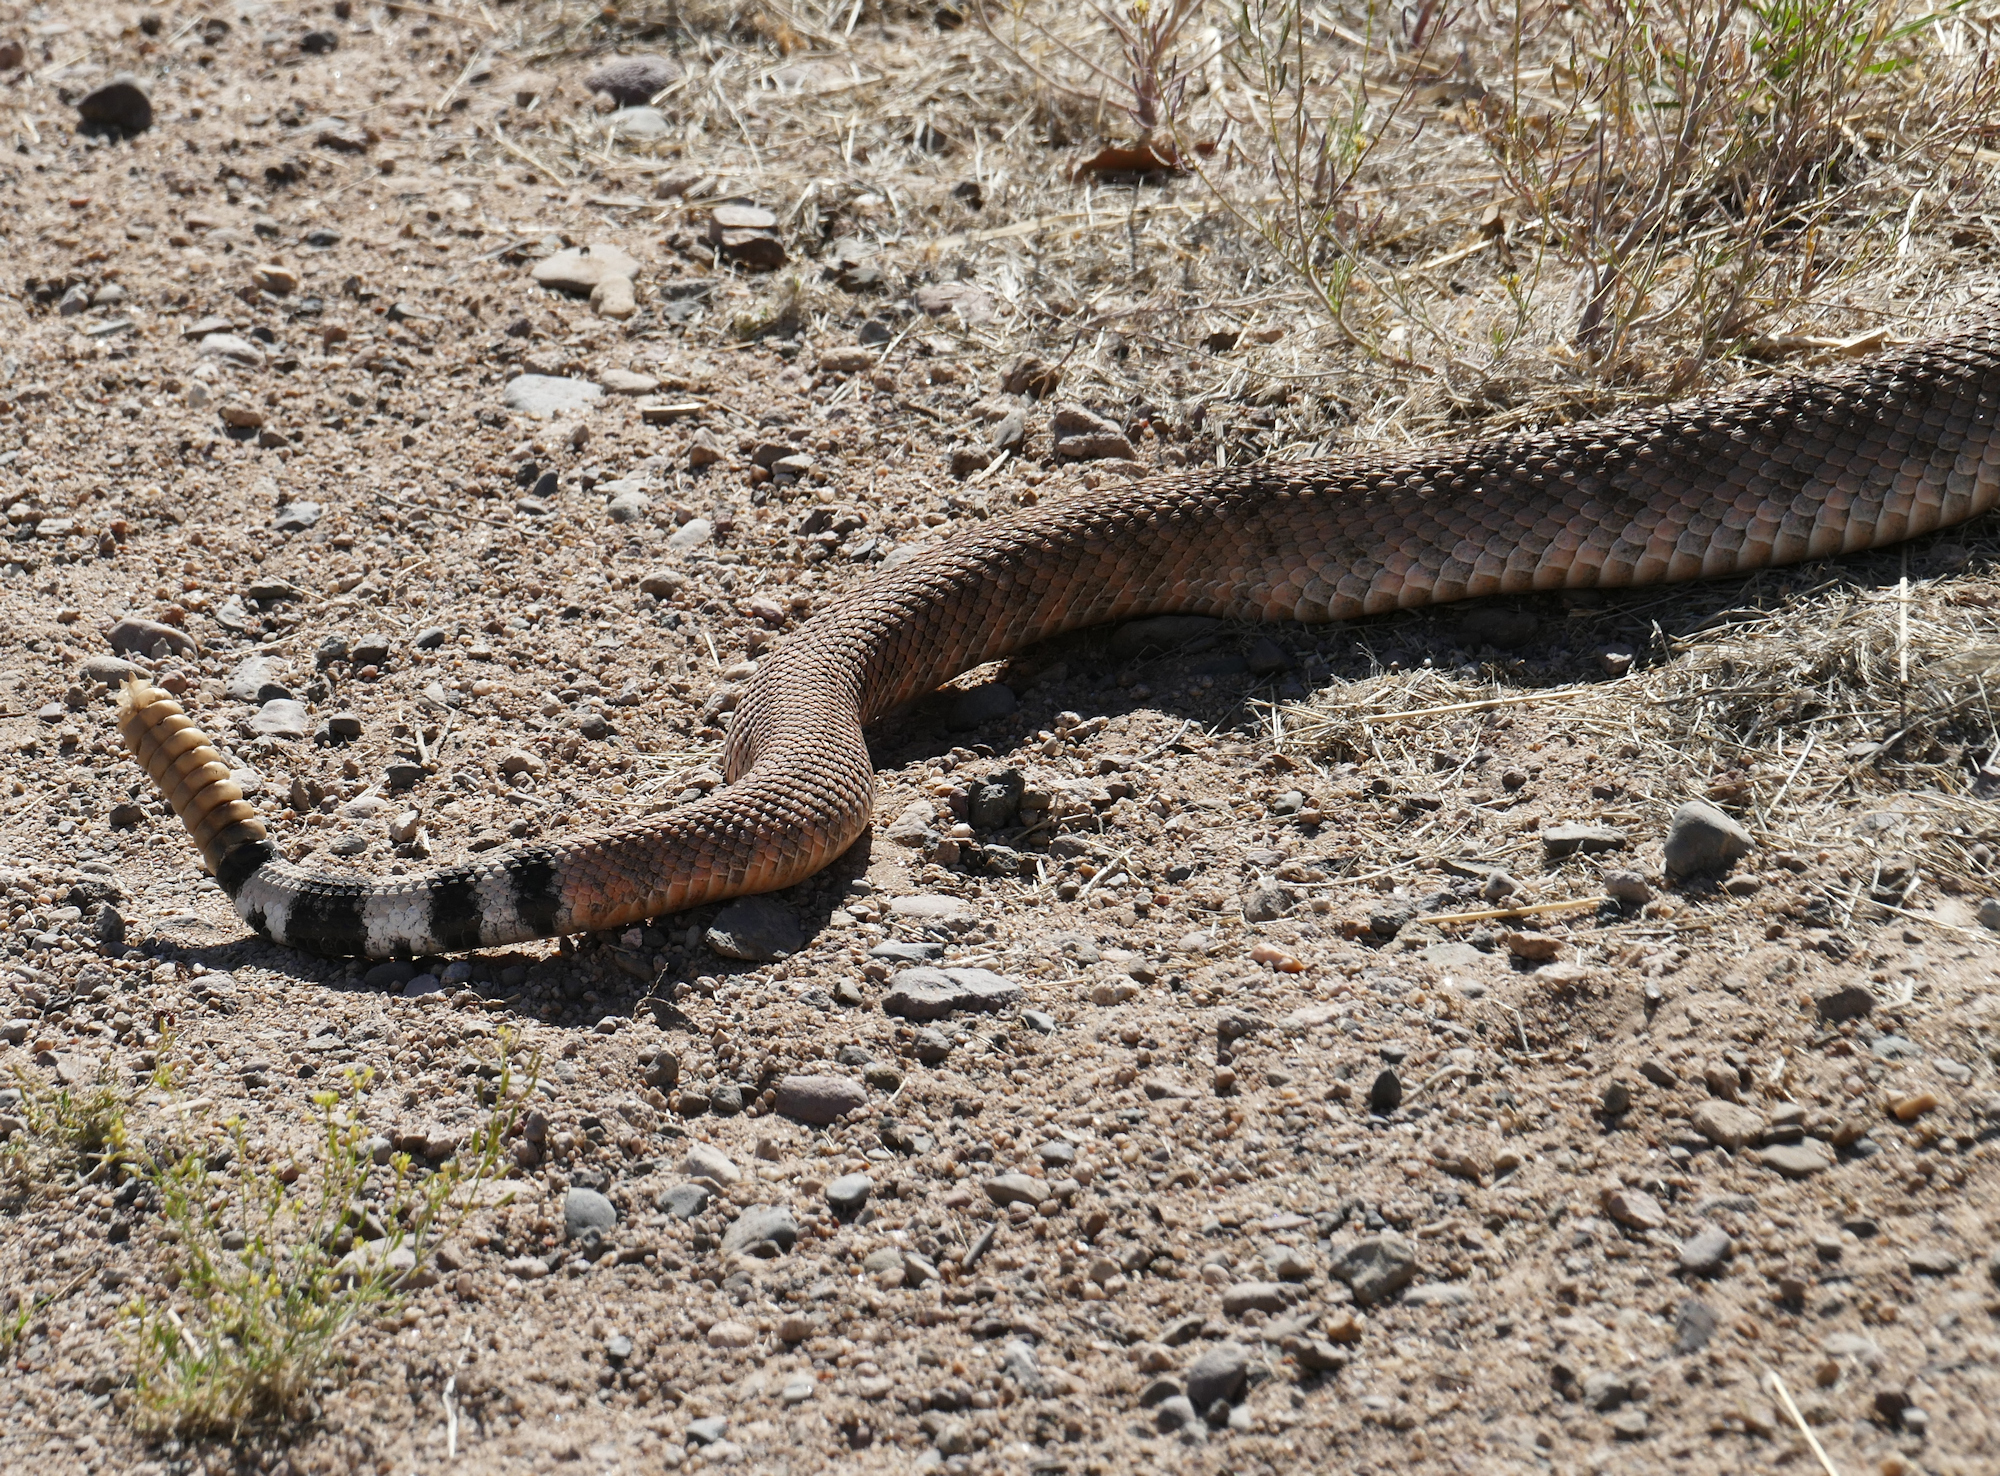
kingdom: Animalia
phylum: Chordata
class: Squamata
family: Viperidae
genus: Crotalus
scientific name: Crotalus atrox
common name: Western diamond-backed rattlesnake
